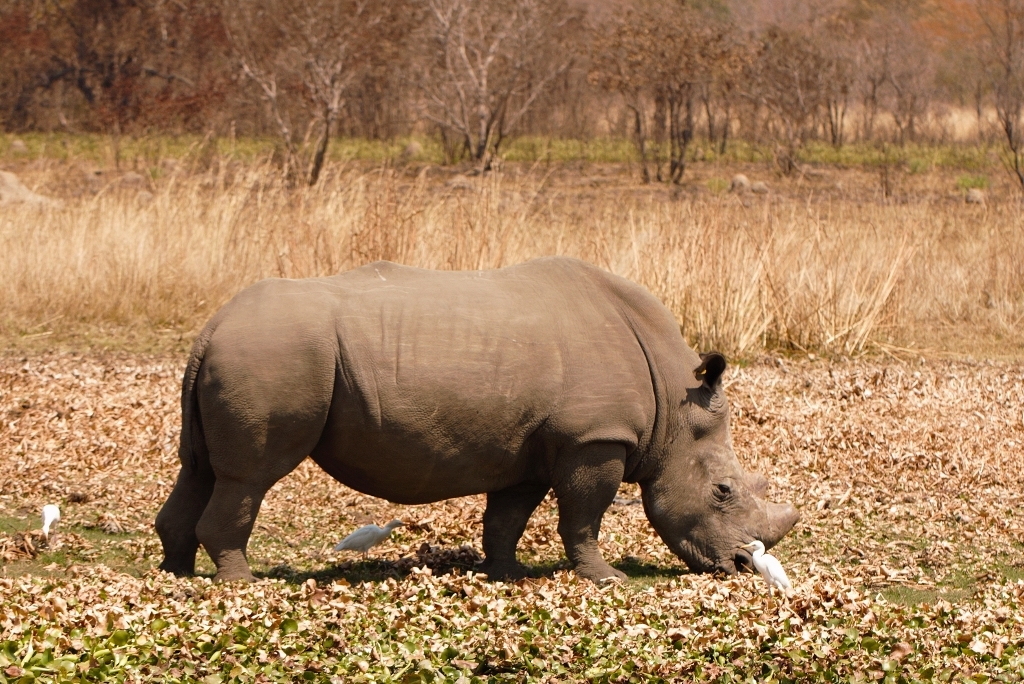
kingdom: Animalia
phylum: Chordata
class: Mammalia
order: Perissodactyla
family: Rhinocerotidae
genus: Ceratotherium
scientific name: Ceratotherium simum
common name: White rhinoceros
